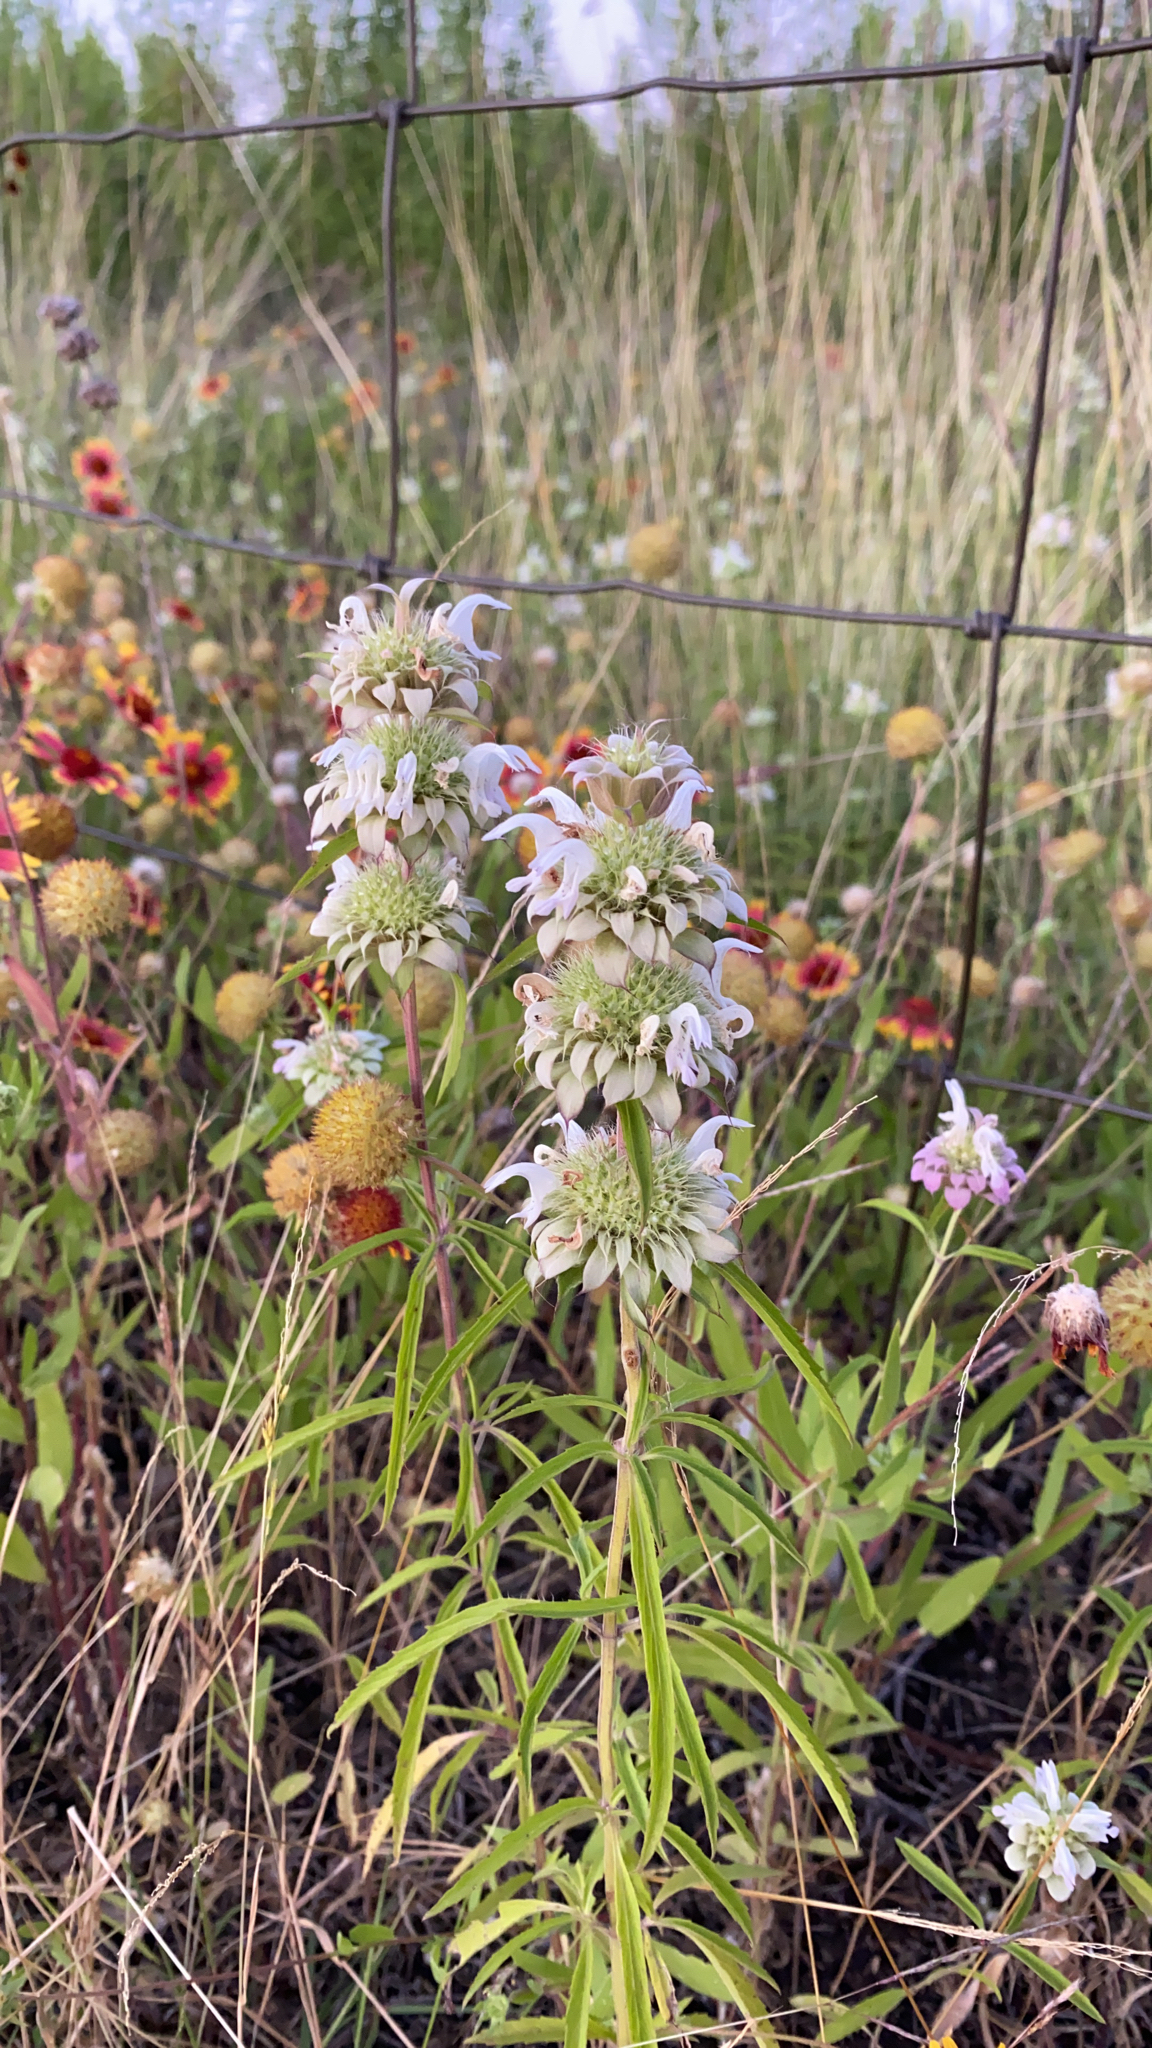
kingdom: Plantae
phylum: Tracheophyta
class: Magnoliopsida
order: Lamiales
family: Lamiaceae
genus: Monarda
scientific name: Monarda citriodora
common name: Lemon beebalm
